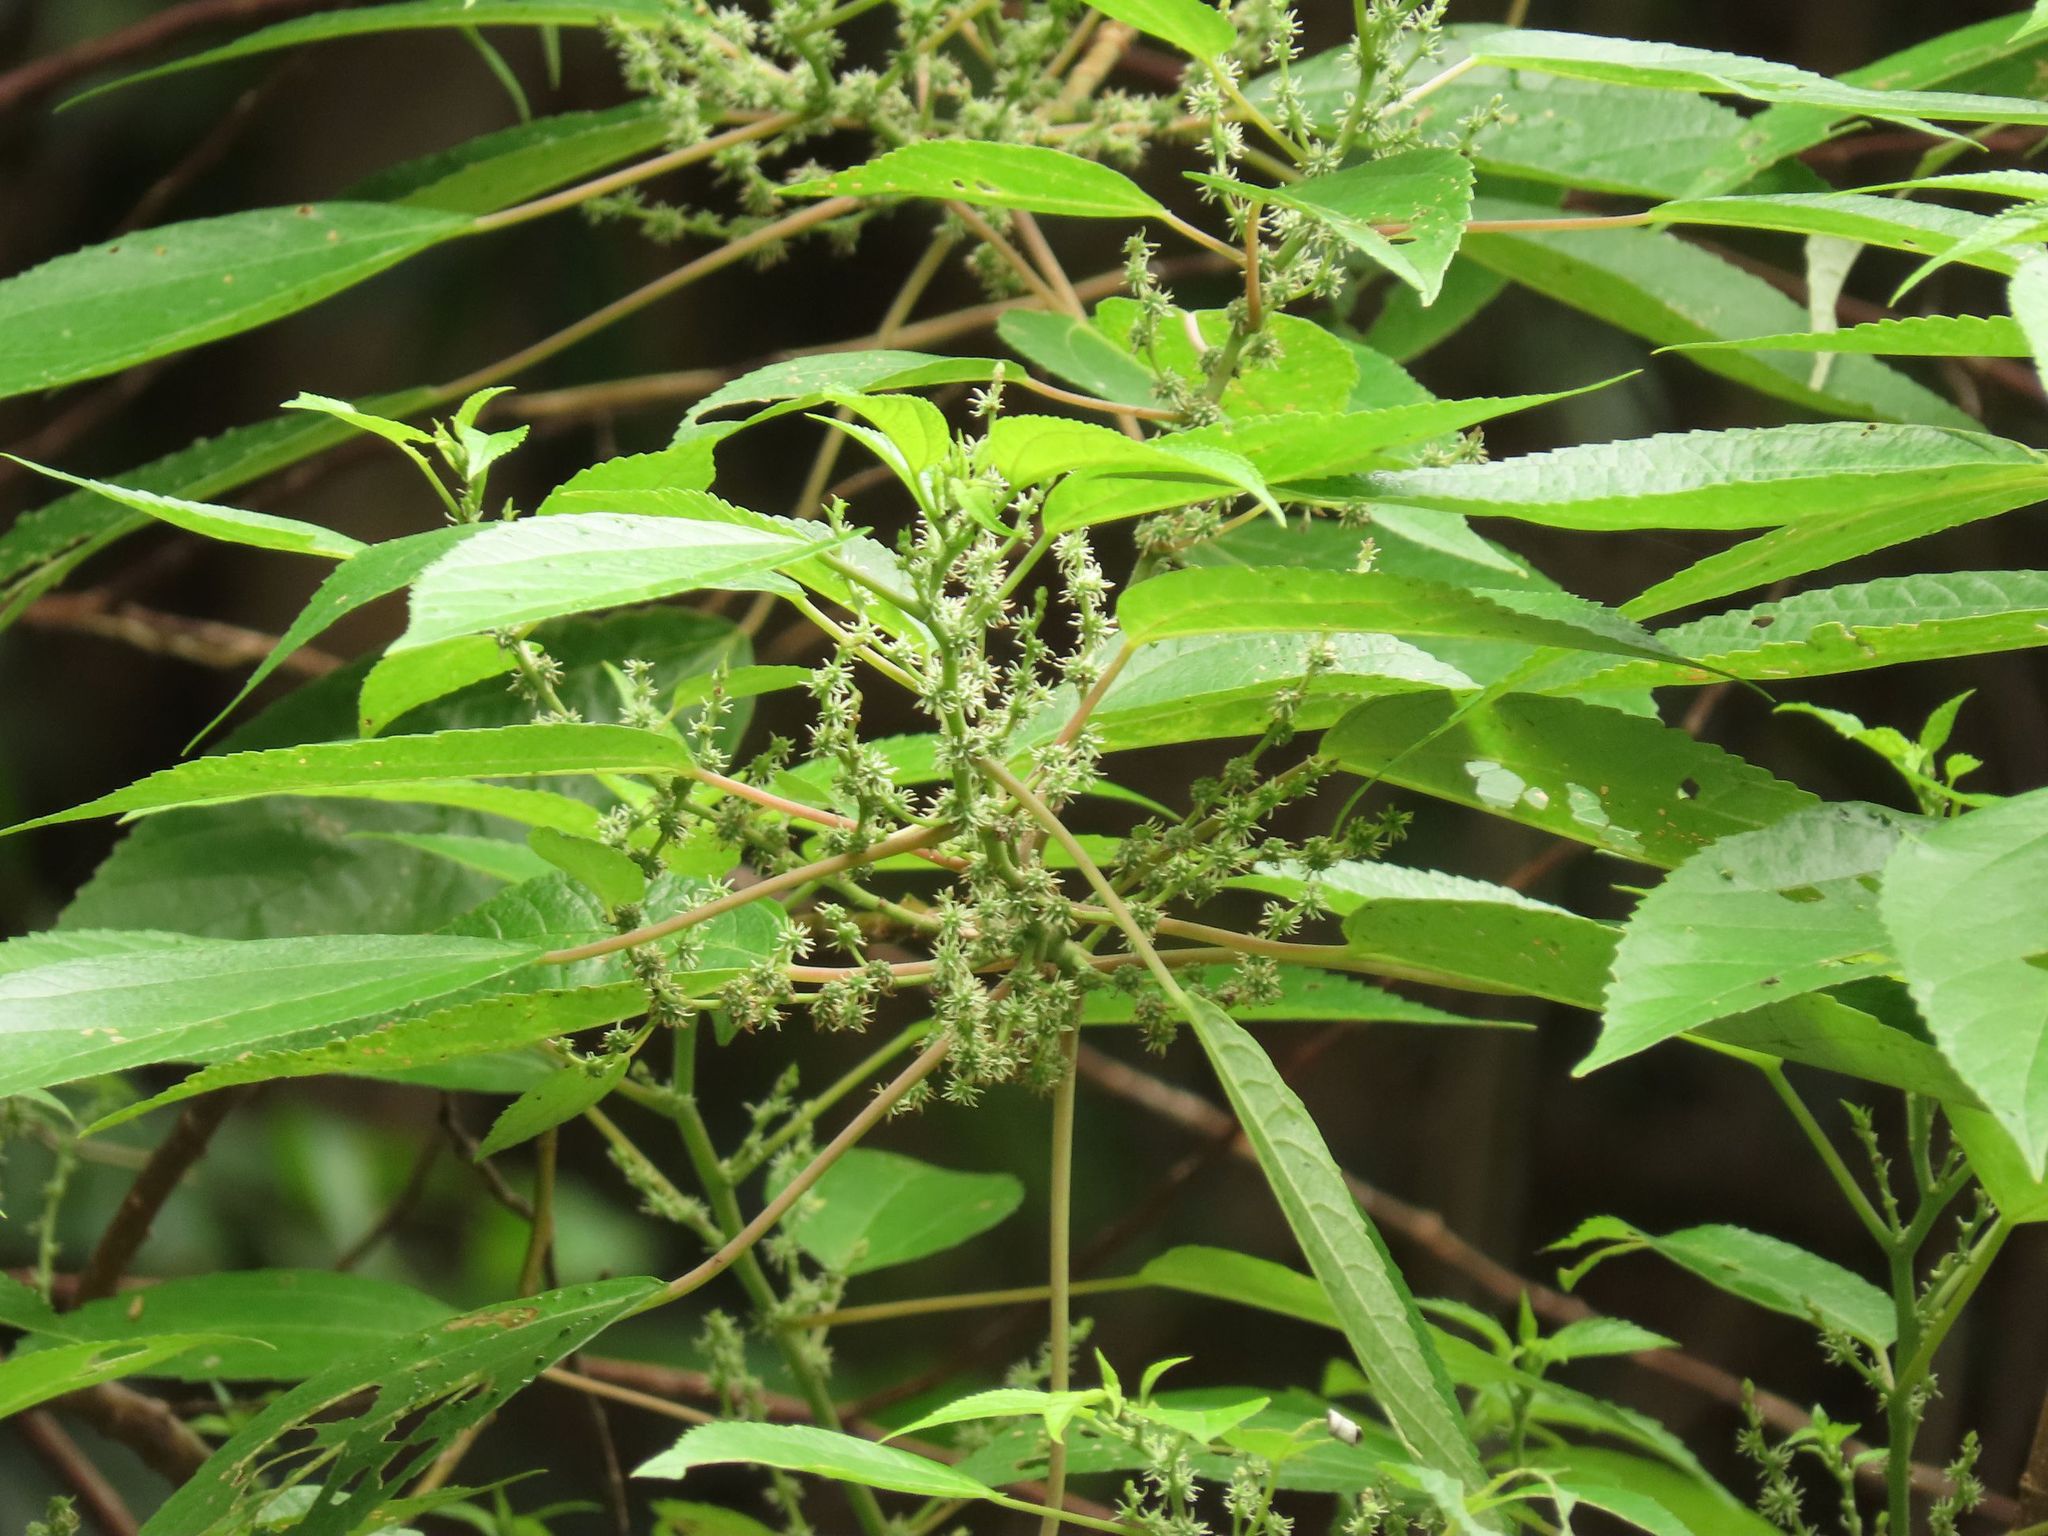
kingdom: Plantae
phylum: Tracheophyta
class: Magnoliopsida
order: Rosales
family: Urticaceae
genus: Pipturus
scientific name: Pipturus argenteus
